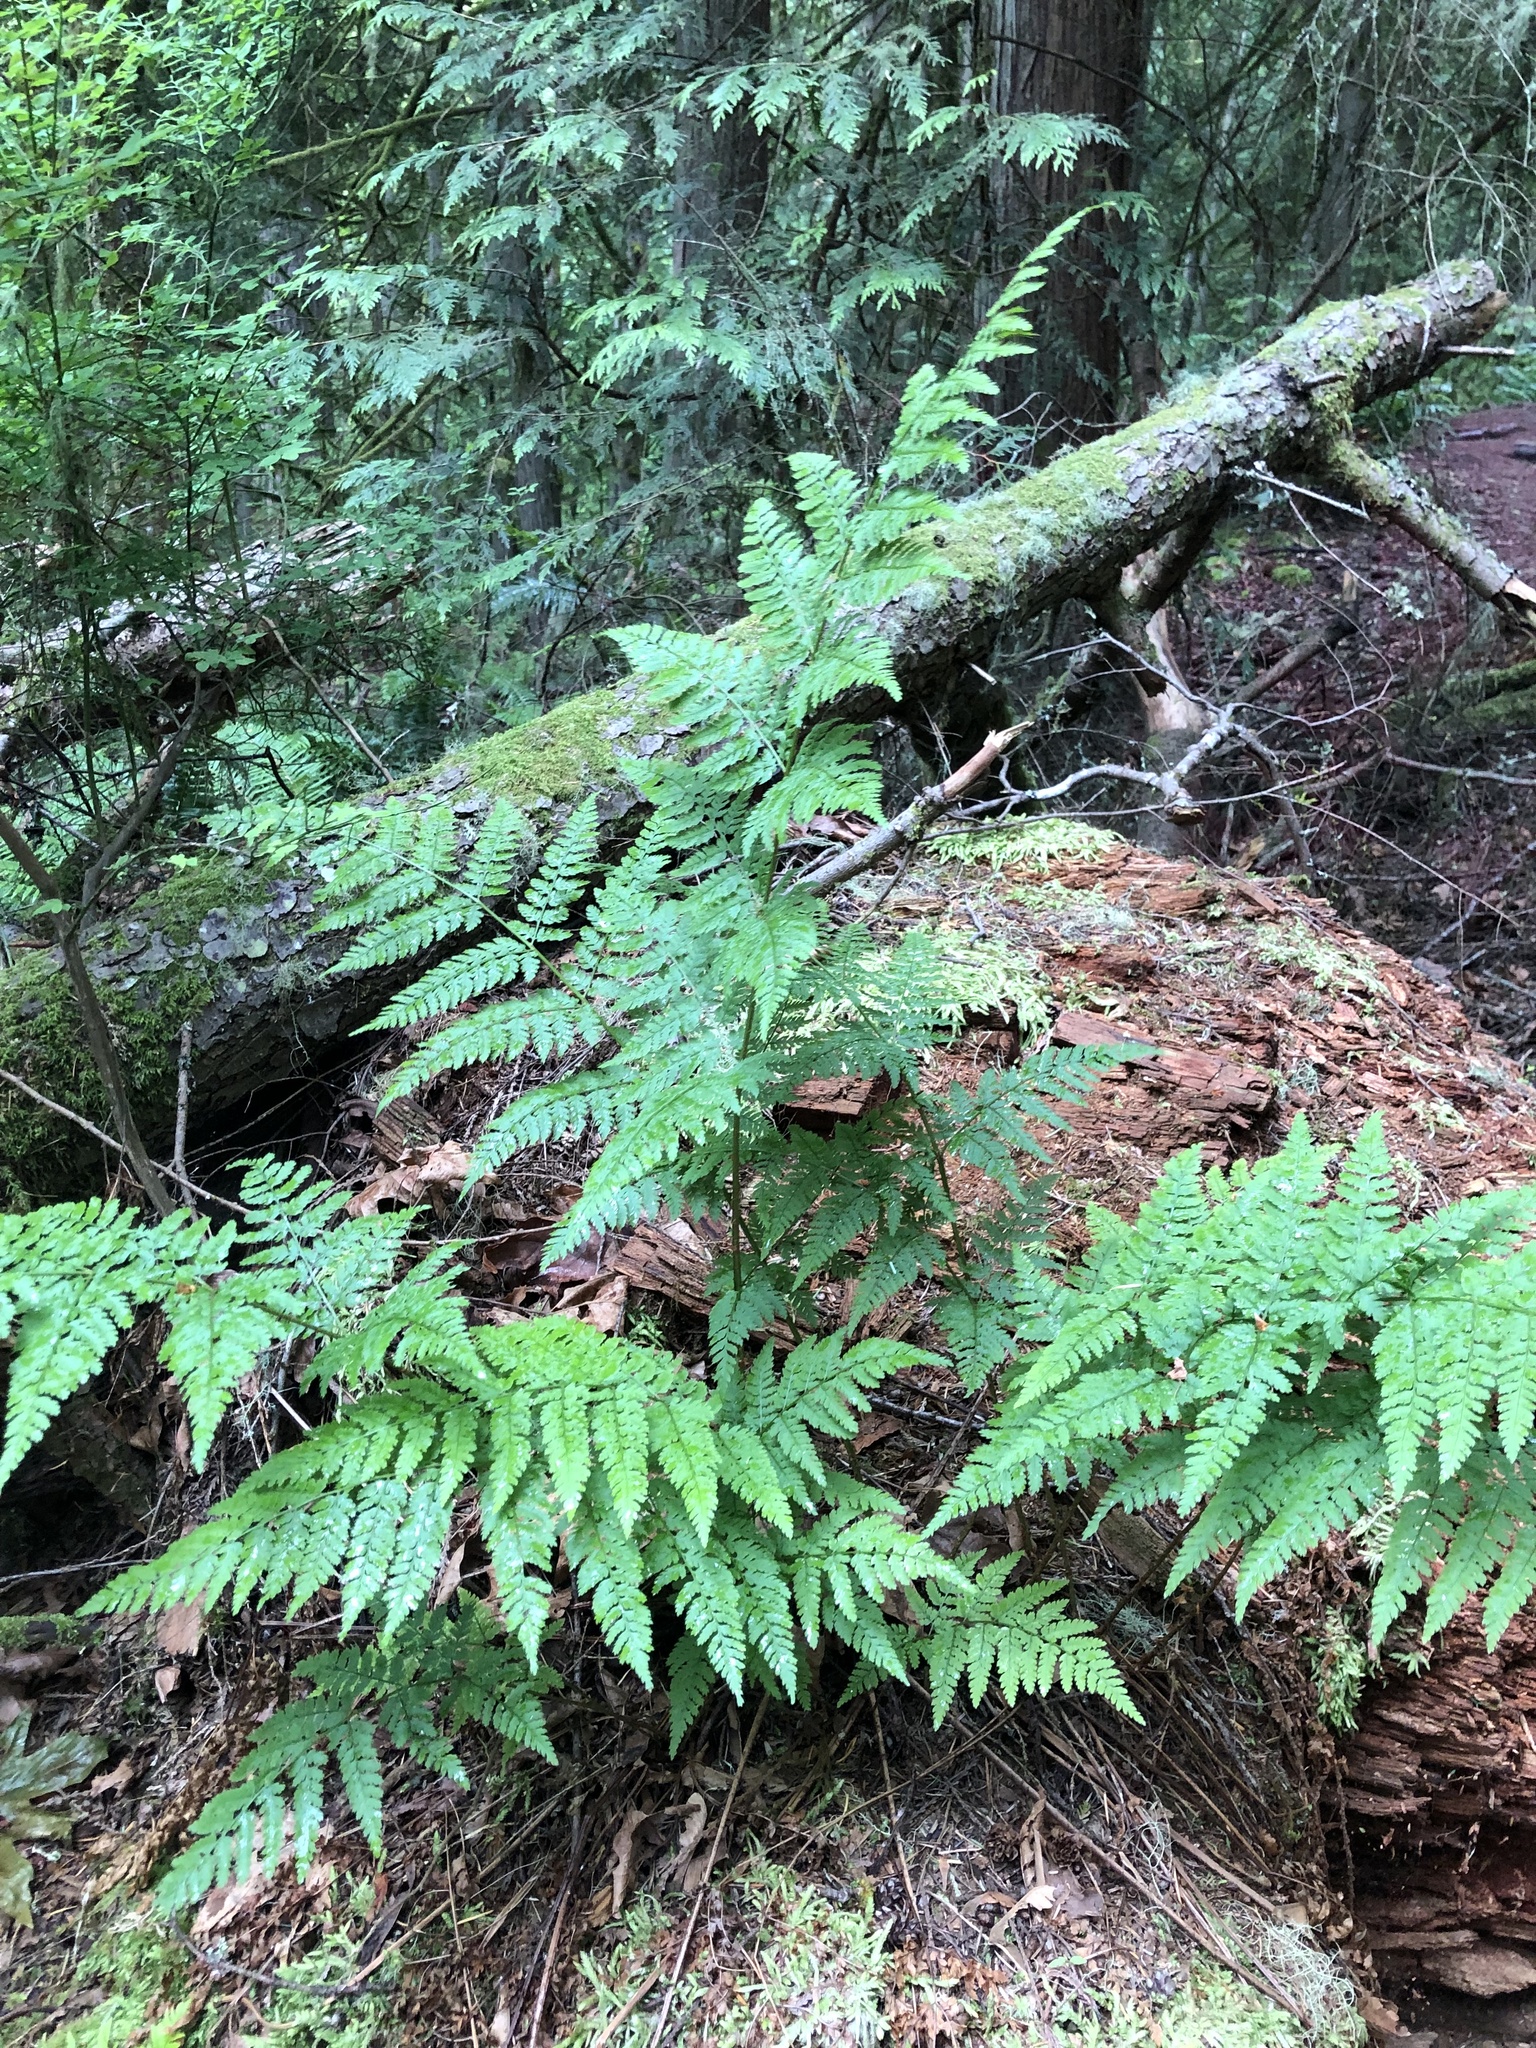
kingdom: Plantae
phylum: Tracheophyta
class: Polypodiopsida
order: Polypodiales
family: Dryopteridaceae
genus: Dryopteris
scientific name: Dryopteris expansa
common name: Northern buckler fern
